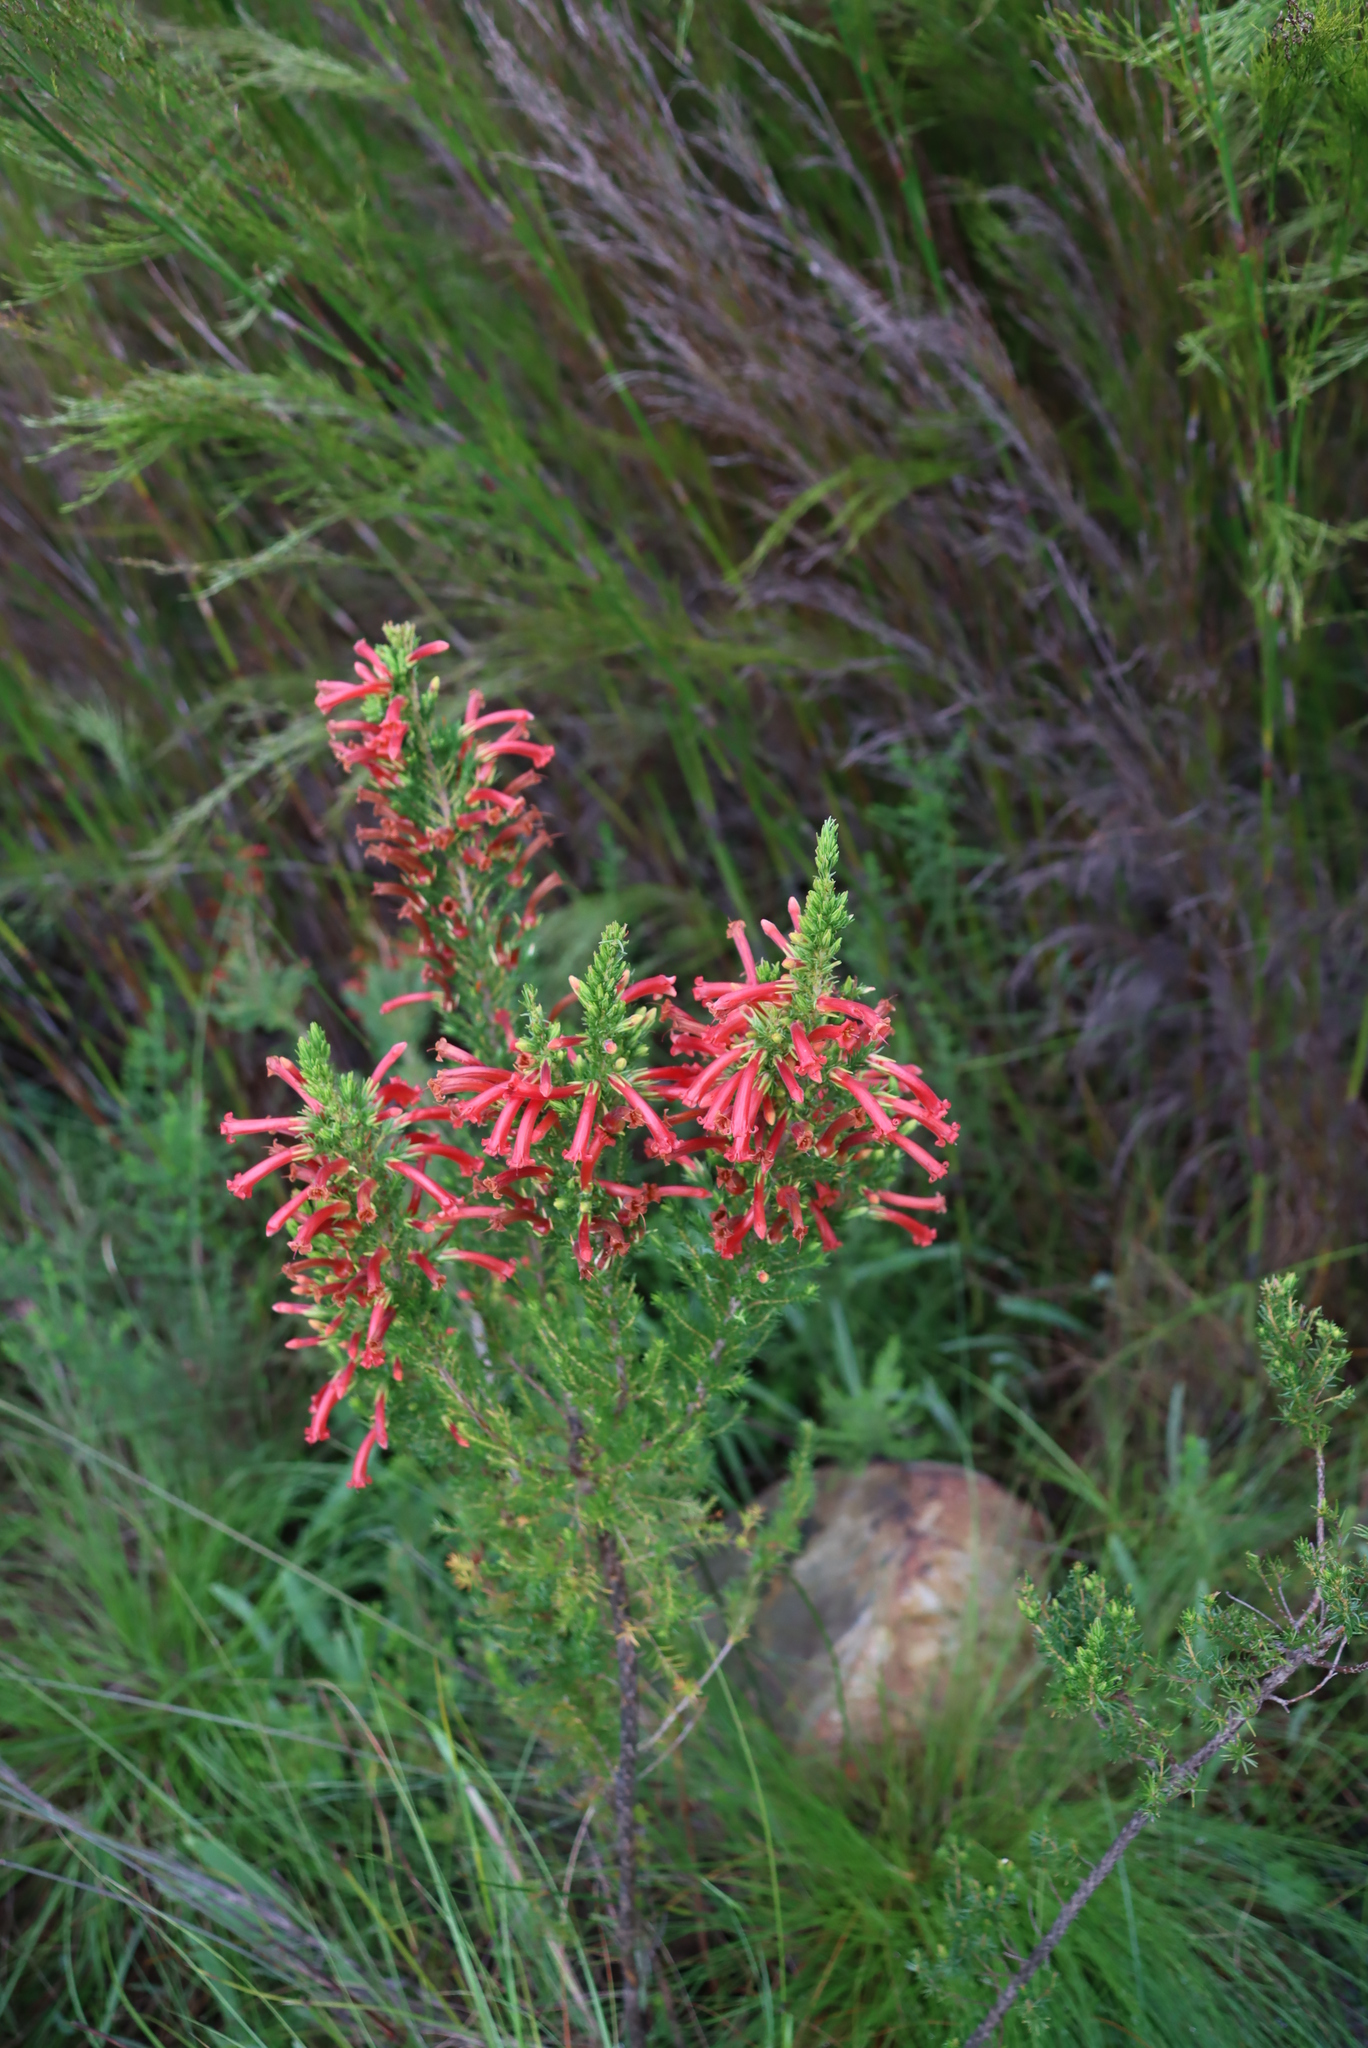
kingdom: Plantae
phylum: Tracheophyta
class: Magnoliopsida
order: Ericales
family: Ericaceae
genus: Erica
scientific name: Erica curviflora
